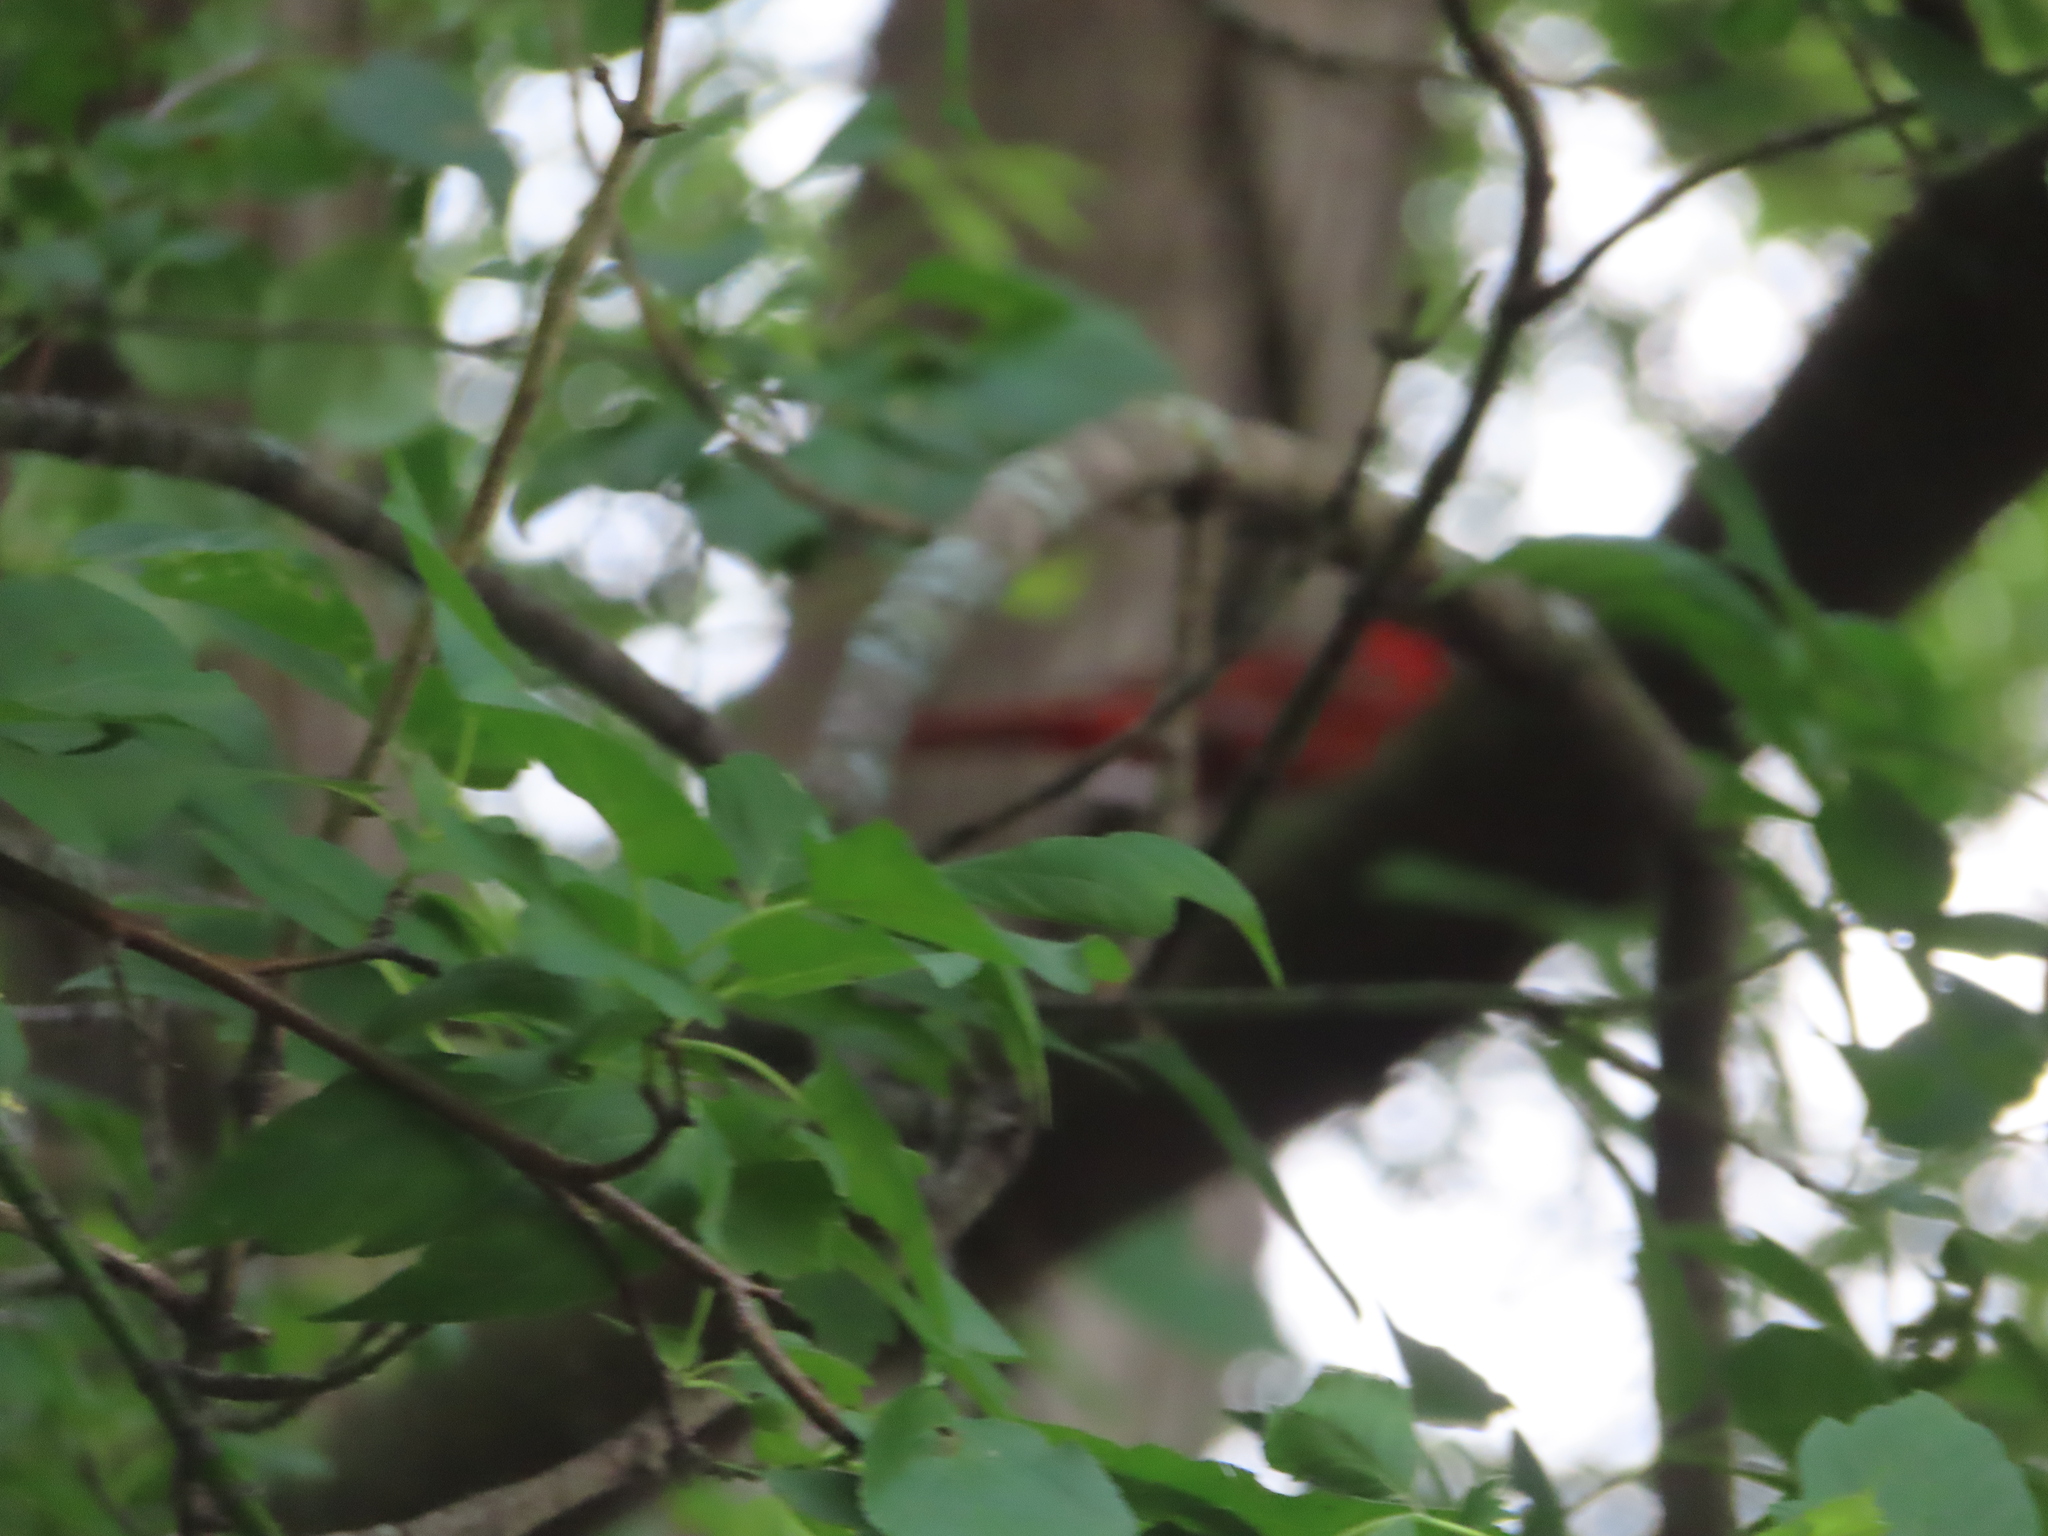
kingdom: Animalia
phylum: Chordata
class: Aves
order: Passeriformes
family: Cardinalidae
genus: Cardinalis
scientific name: Cardinalis cardinalis
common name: Northern cardinal
